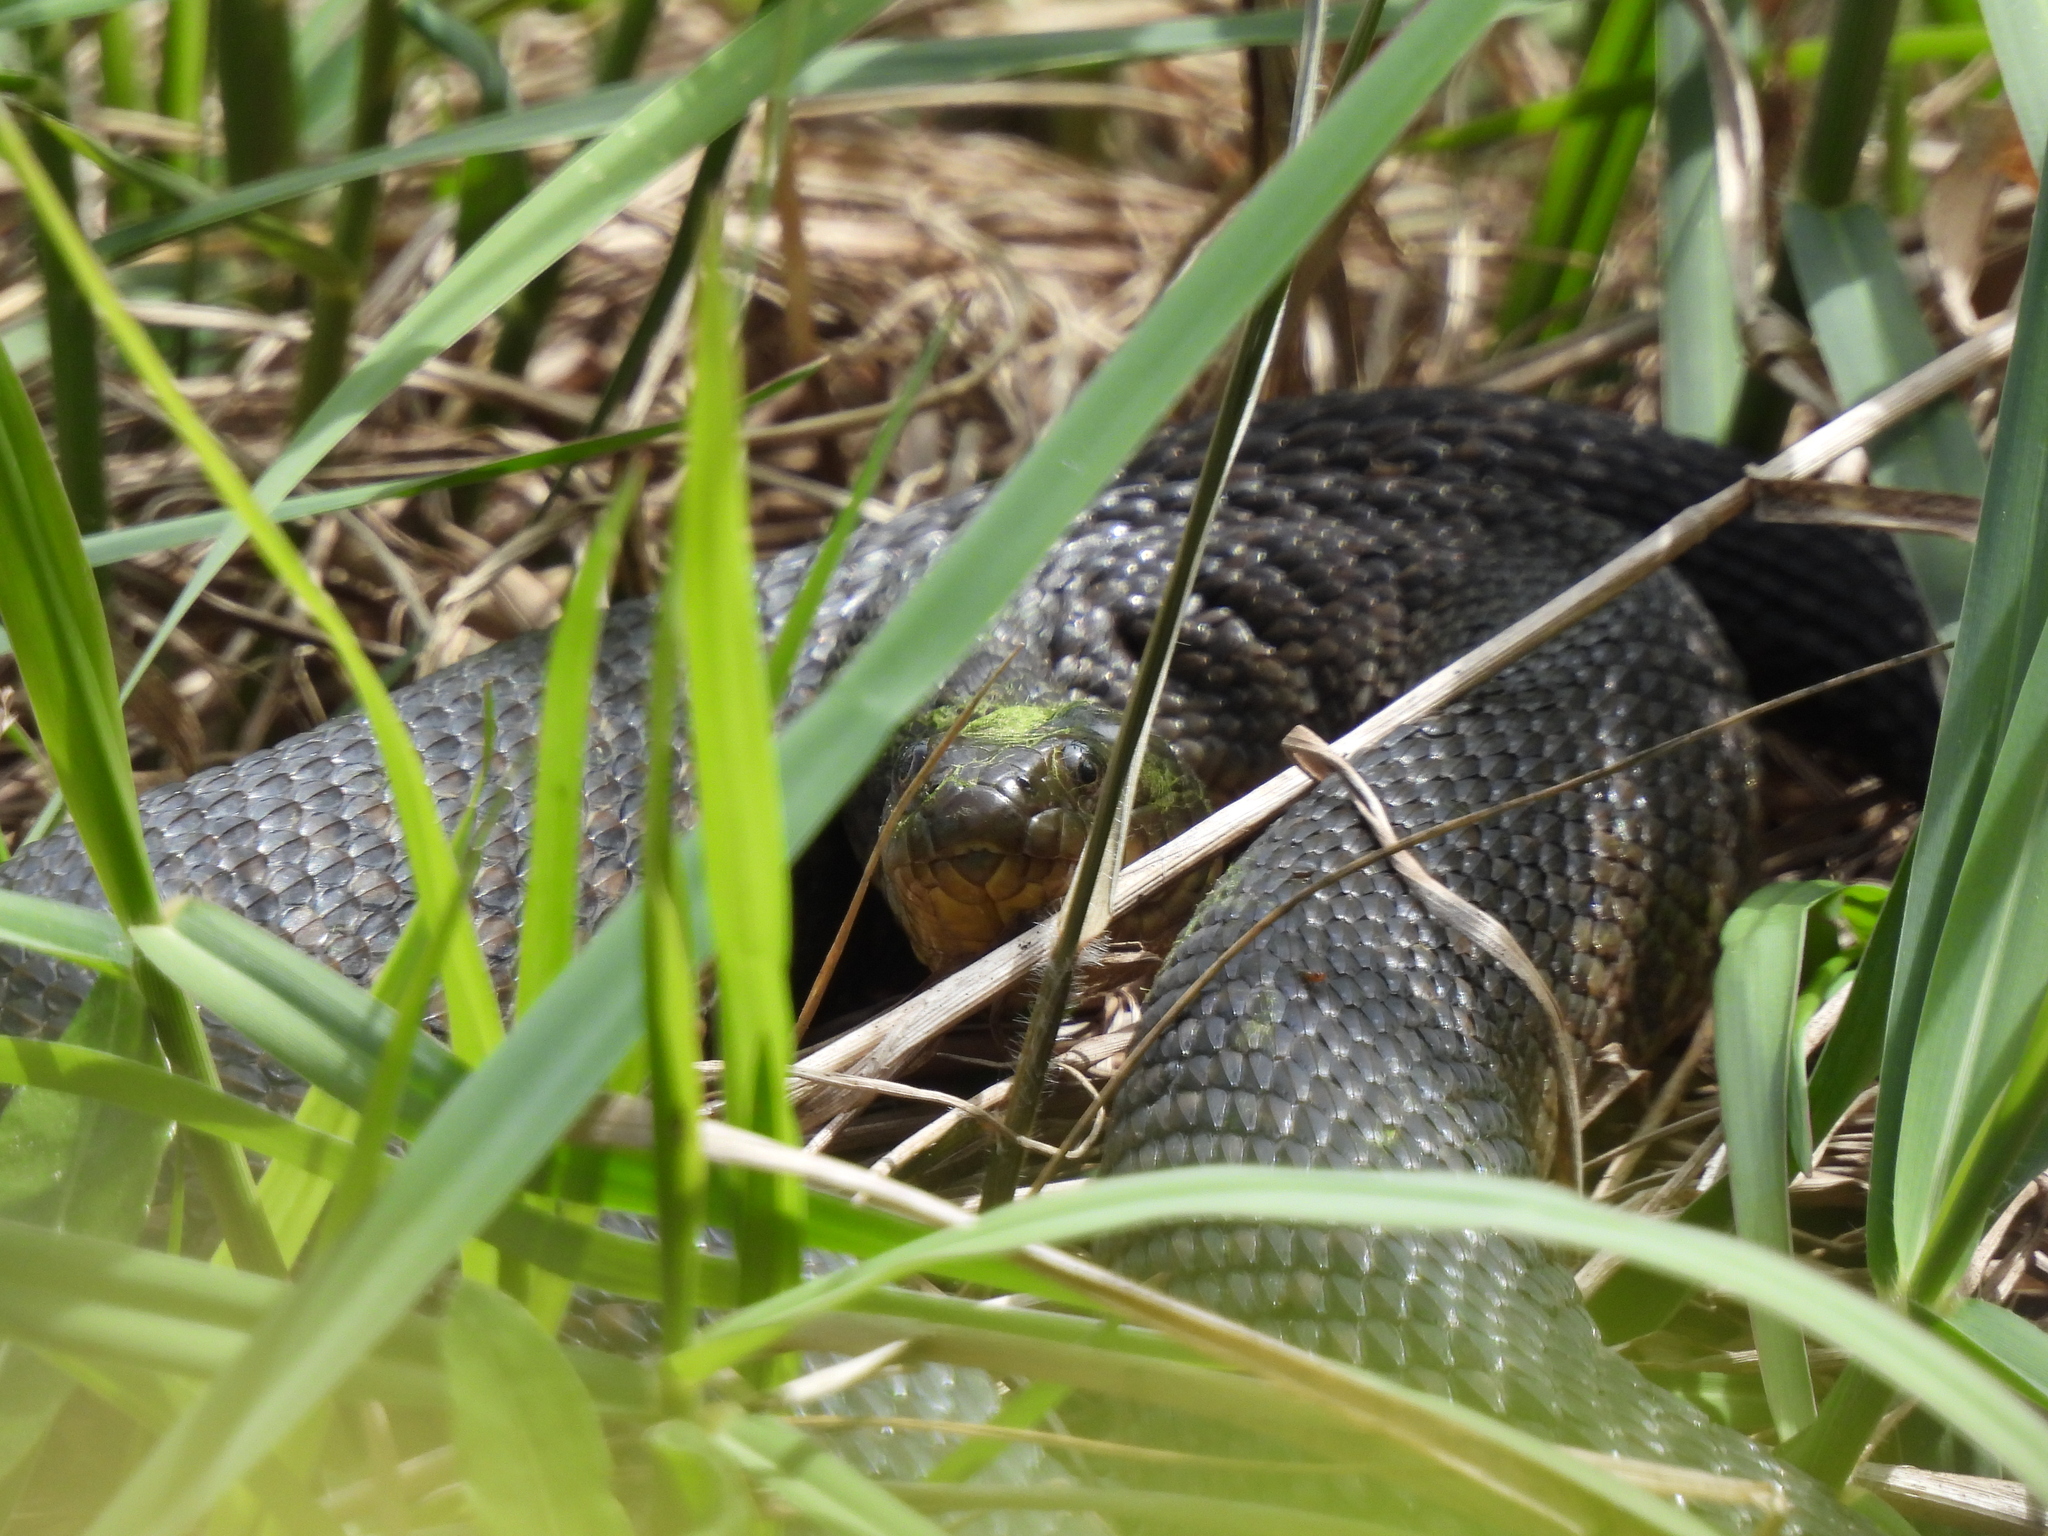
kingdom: Animalia
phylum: Chordata
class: Squamata
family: Colubridae
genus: Nerodia
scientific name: Nerodia cyclopion
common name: Mississippi green water snake
